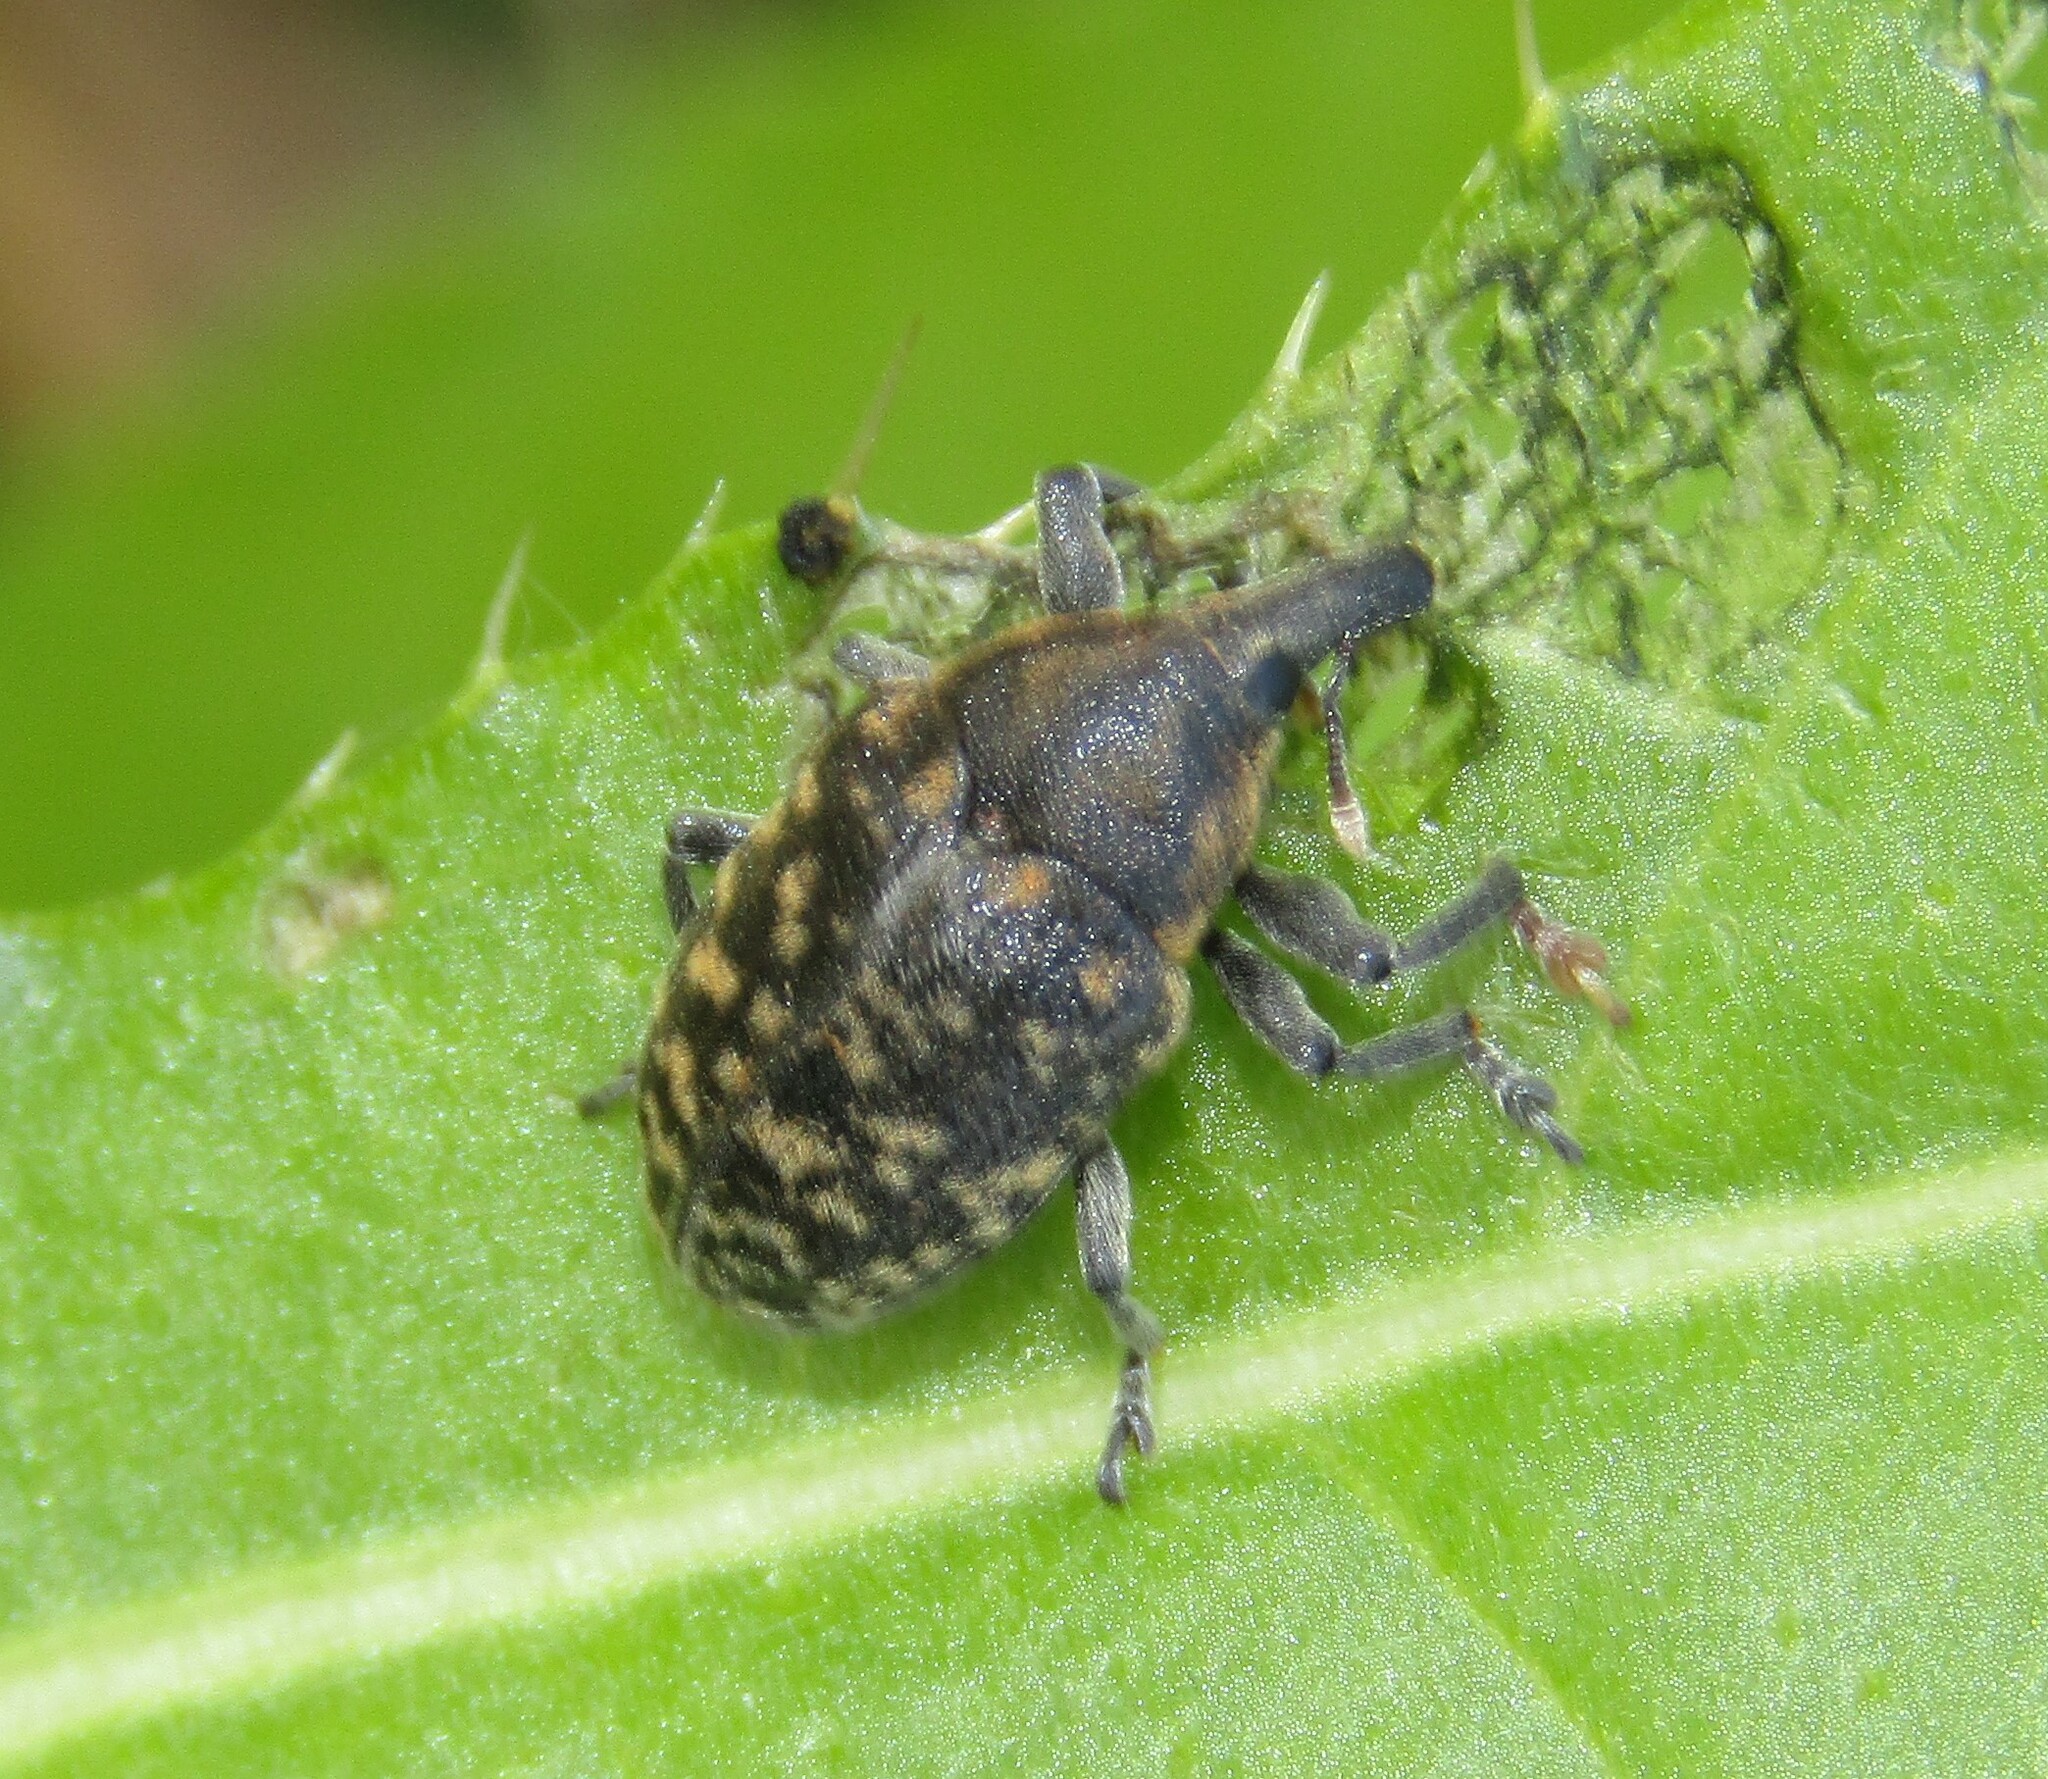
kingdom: Animalia
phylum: Arthropoda
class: Insecta
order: Coleoptera
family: Curculionidae
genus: Larinus
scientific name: Larinus turbinatus
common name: Weevil
